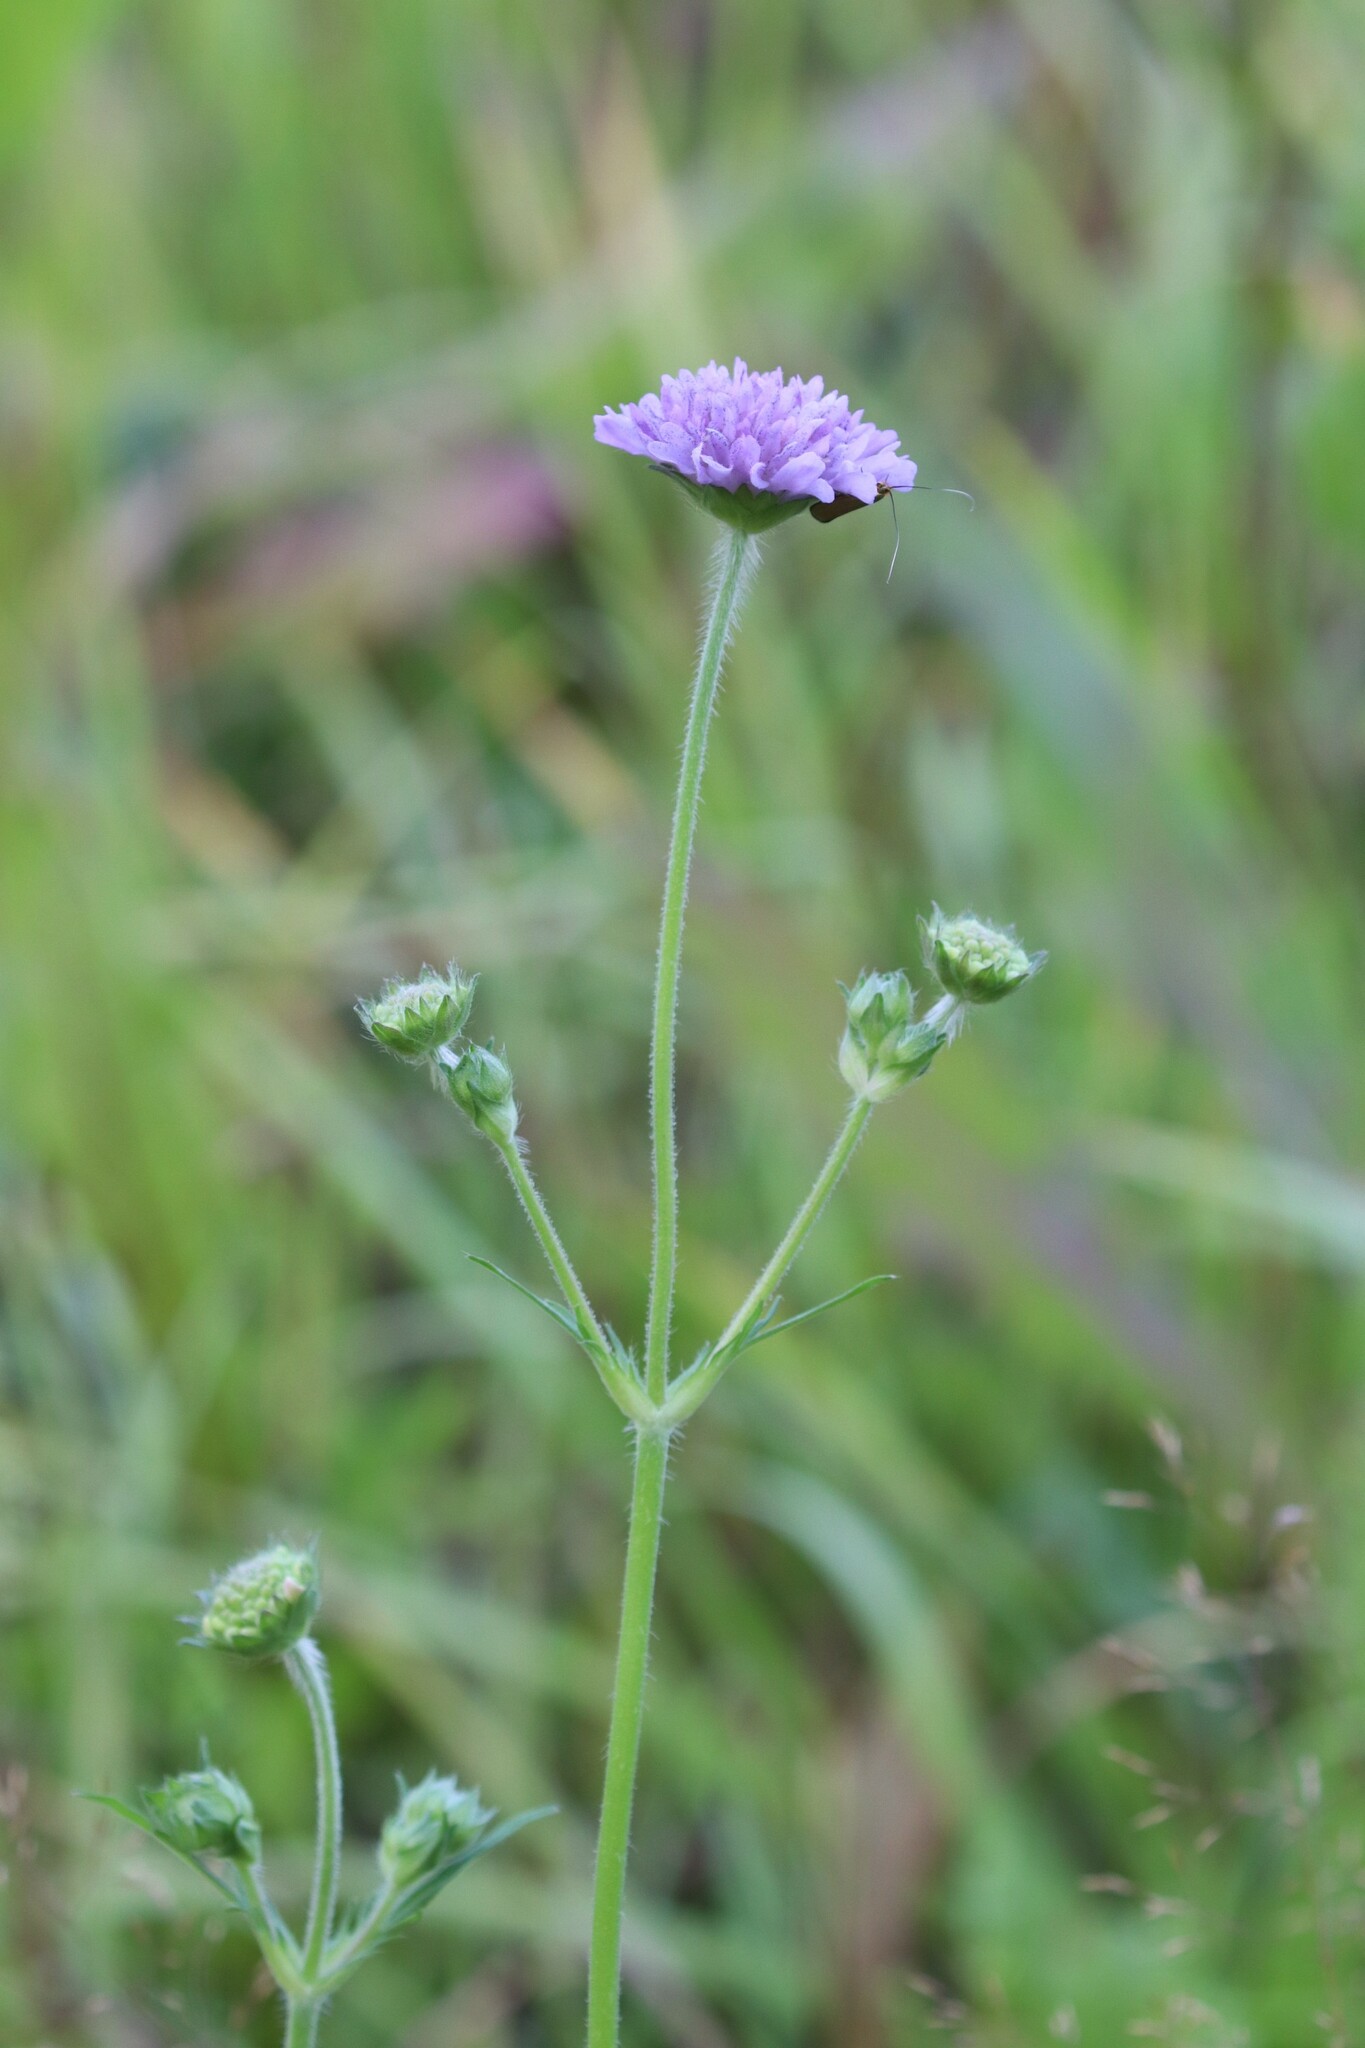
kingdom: Plantae
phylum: Tracheophyta
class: Magnoliopsida
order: Dipsacales
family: Caprifoliaceae
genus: Knautia
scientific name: Knautia arvensis
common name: Field scabiosa
